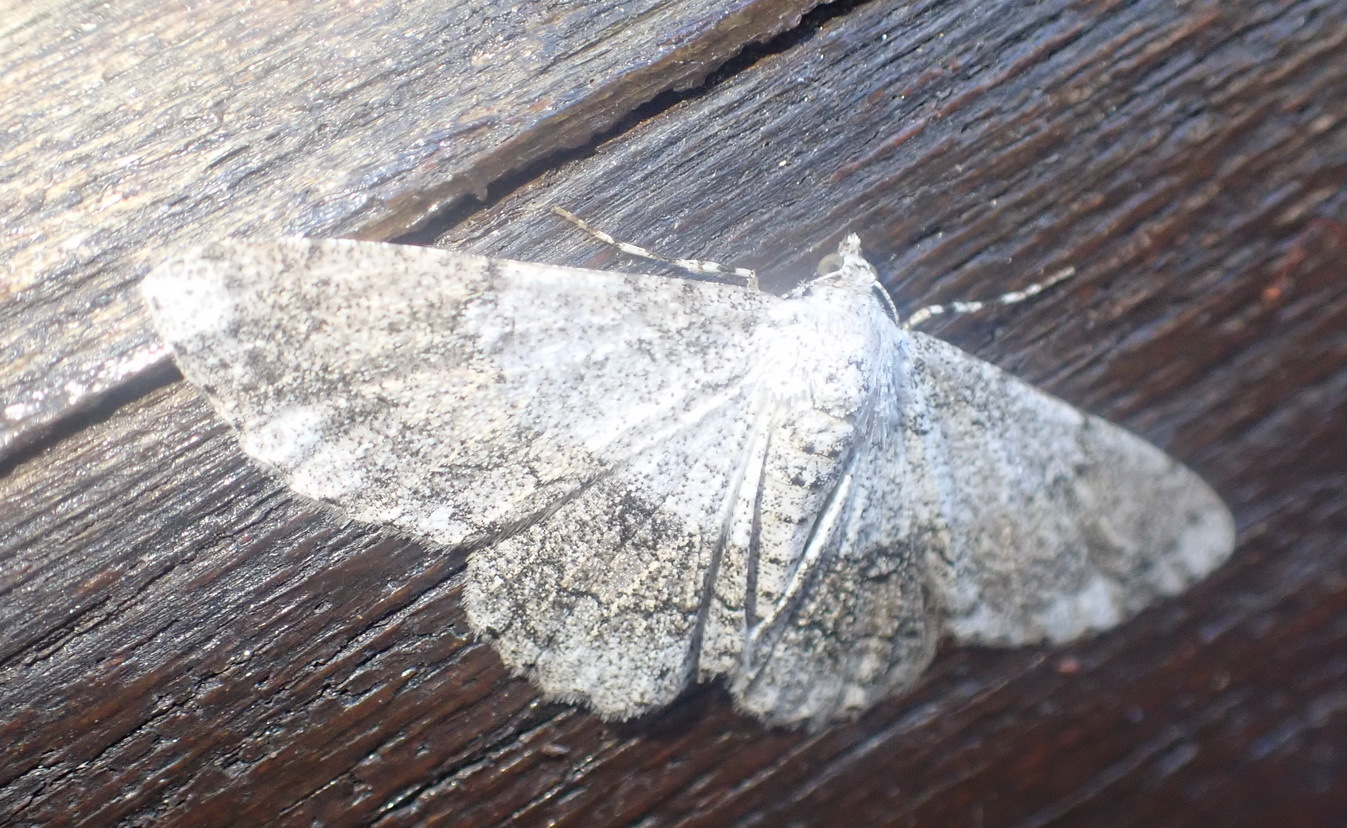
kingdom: Animalia
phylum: Arthropoda
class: Insecta
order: Lepidoptera
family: Geometridae
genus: Pingasa
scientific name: Pingasa abyssiniaria
